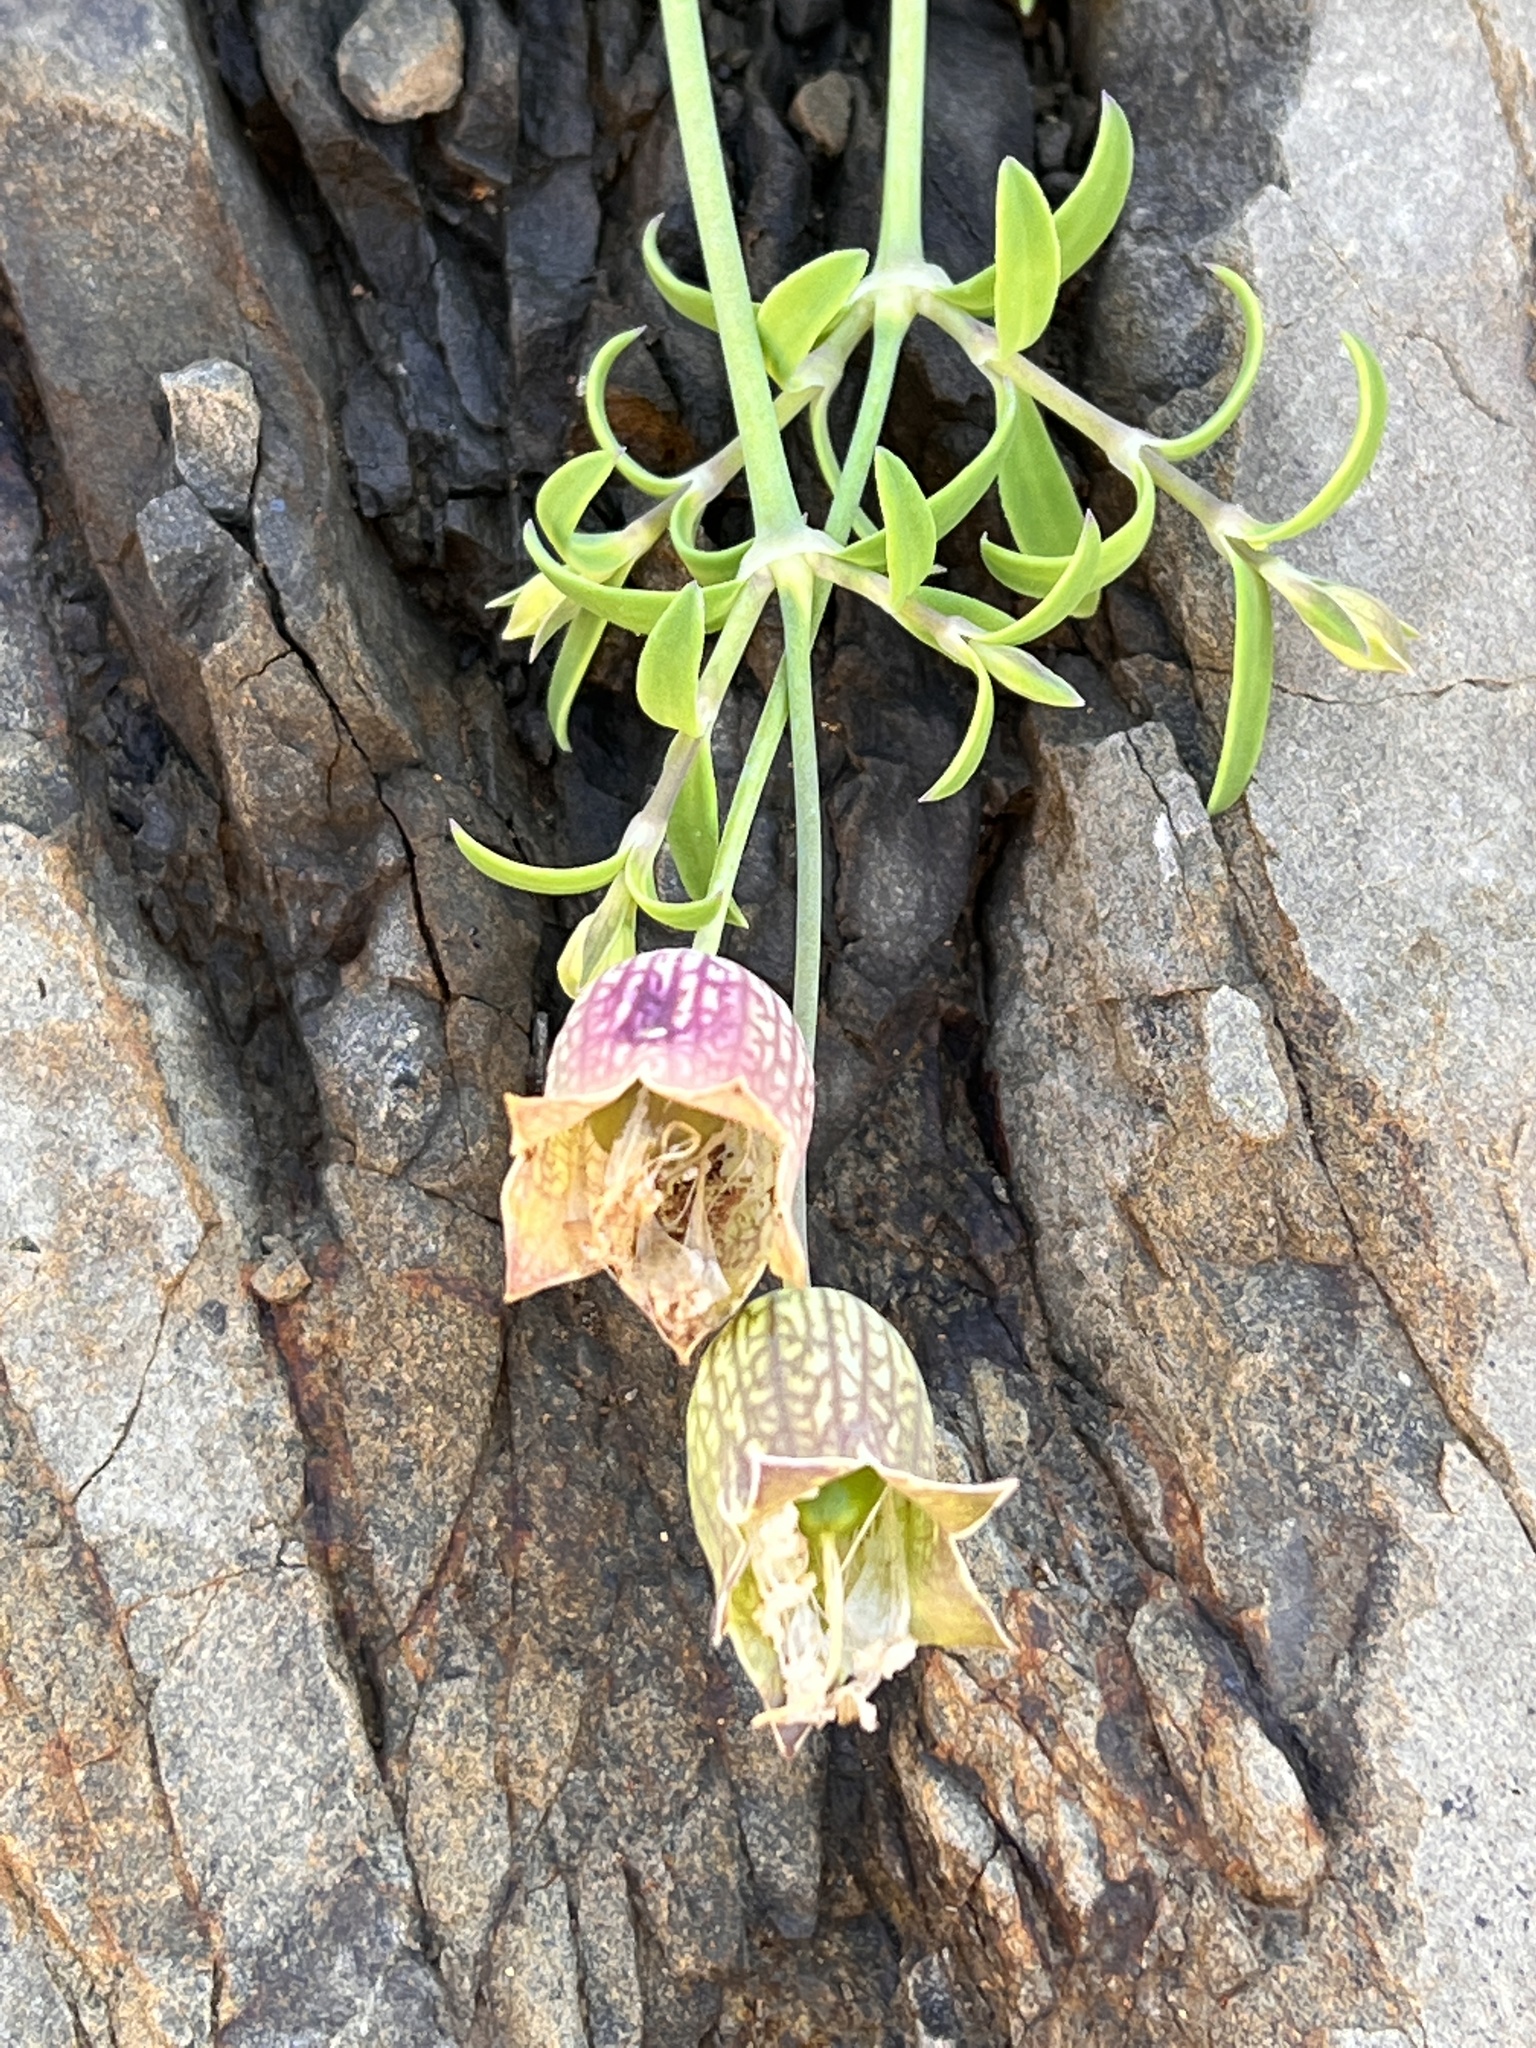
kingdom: Plantae
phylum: Tracheophyta
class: Magnoliopsida
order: Caryophyllales
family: Caryophyllaceae
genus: Silene
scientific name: Silene uniflora
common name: Sea campion
